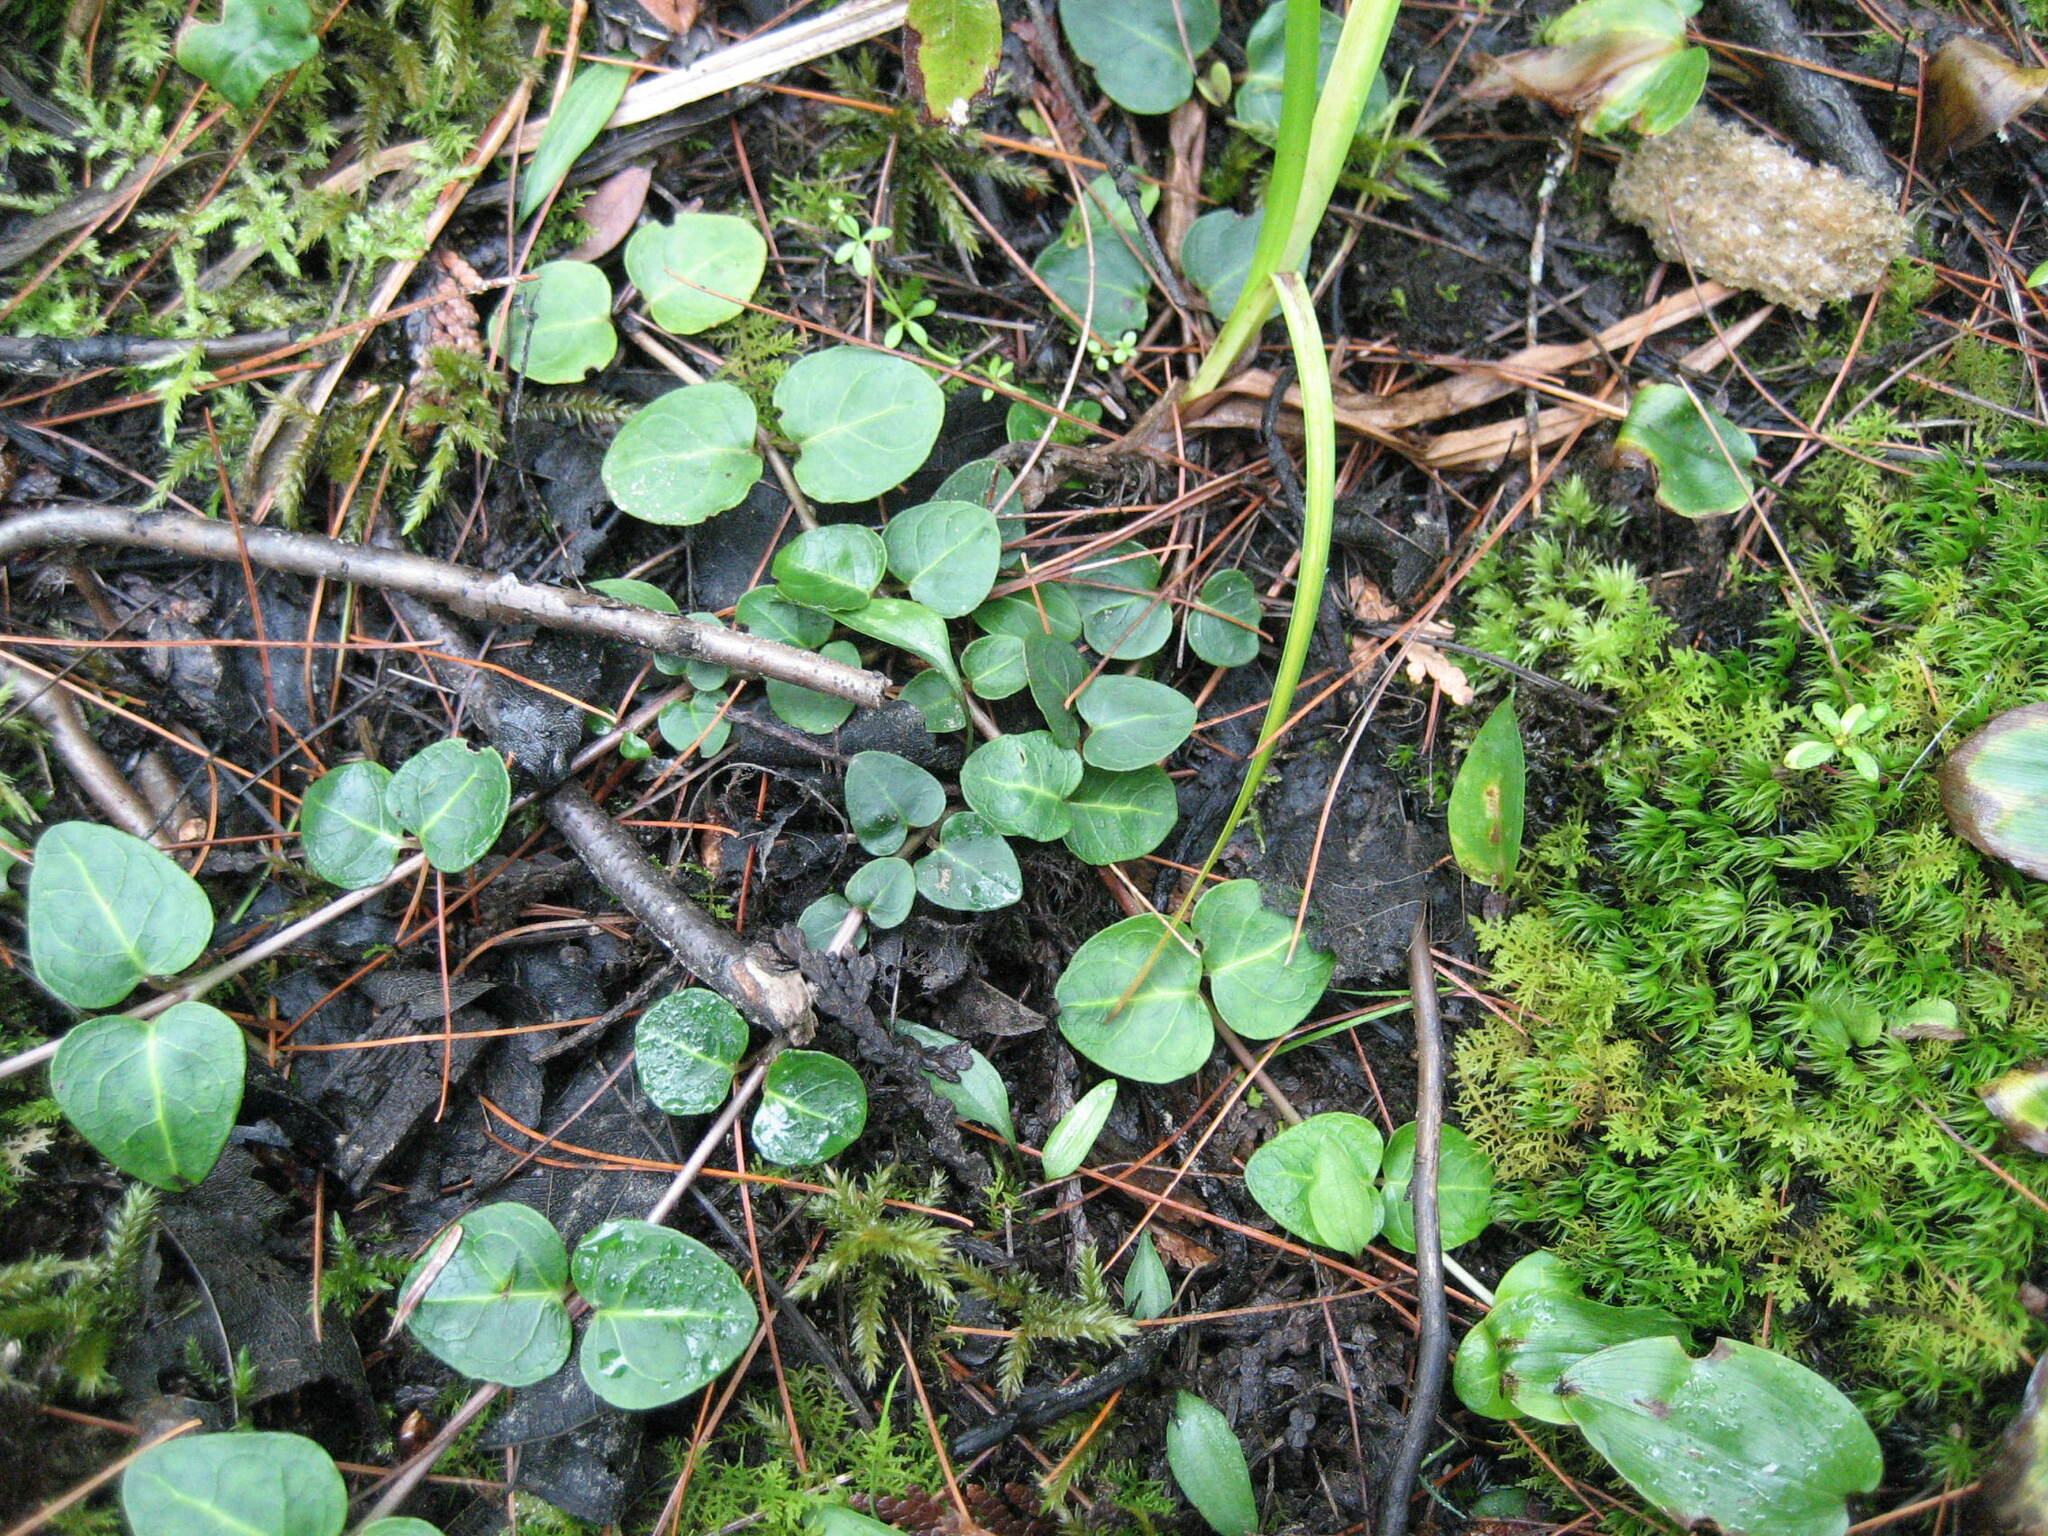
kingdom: Plantae
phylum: Tracheophyta
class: Magnoliopsida
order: Gentianales
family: Rubiaceae
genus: Mitchella
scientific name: Mitchella repens
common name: Partridge-berry
